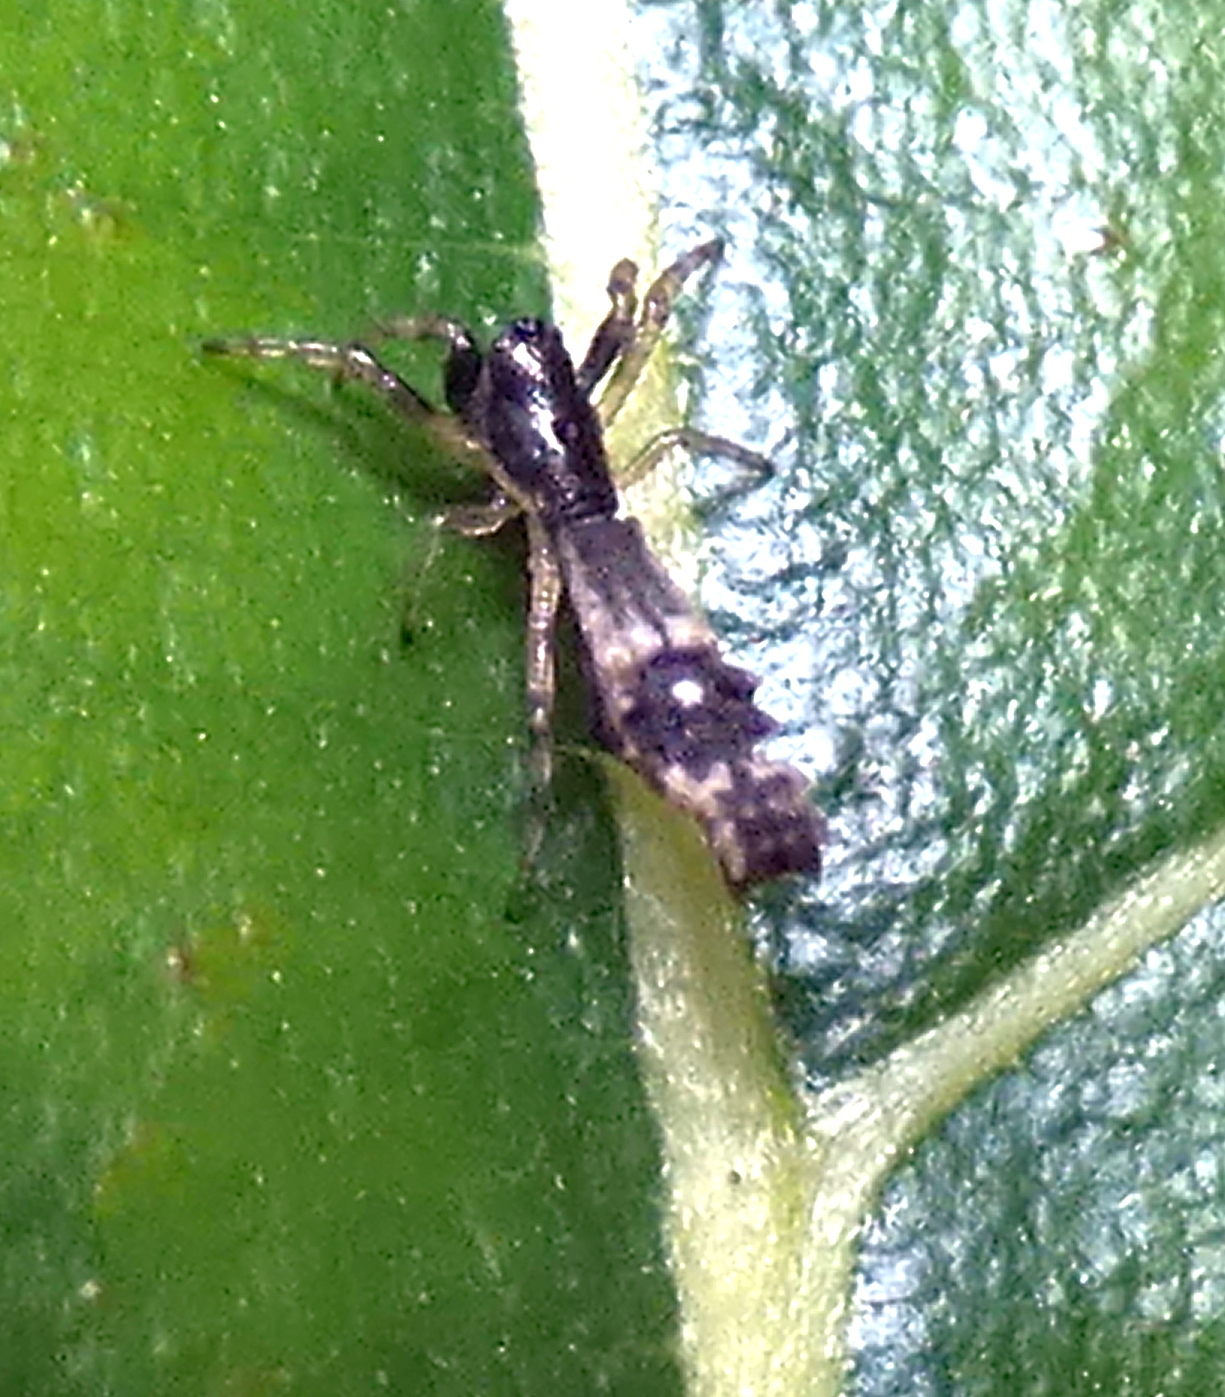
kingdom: Animalia
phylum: Arthropoda
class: Arachnida
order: Araneae
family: Araneidae
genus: Micrathena
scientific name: Micrathena horrida
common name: Orb weavers
